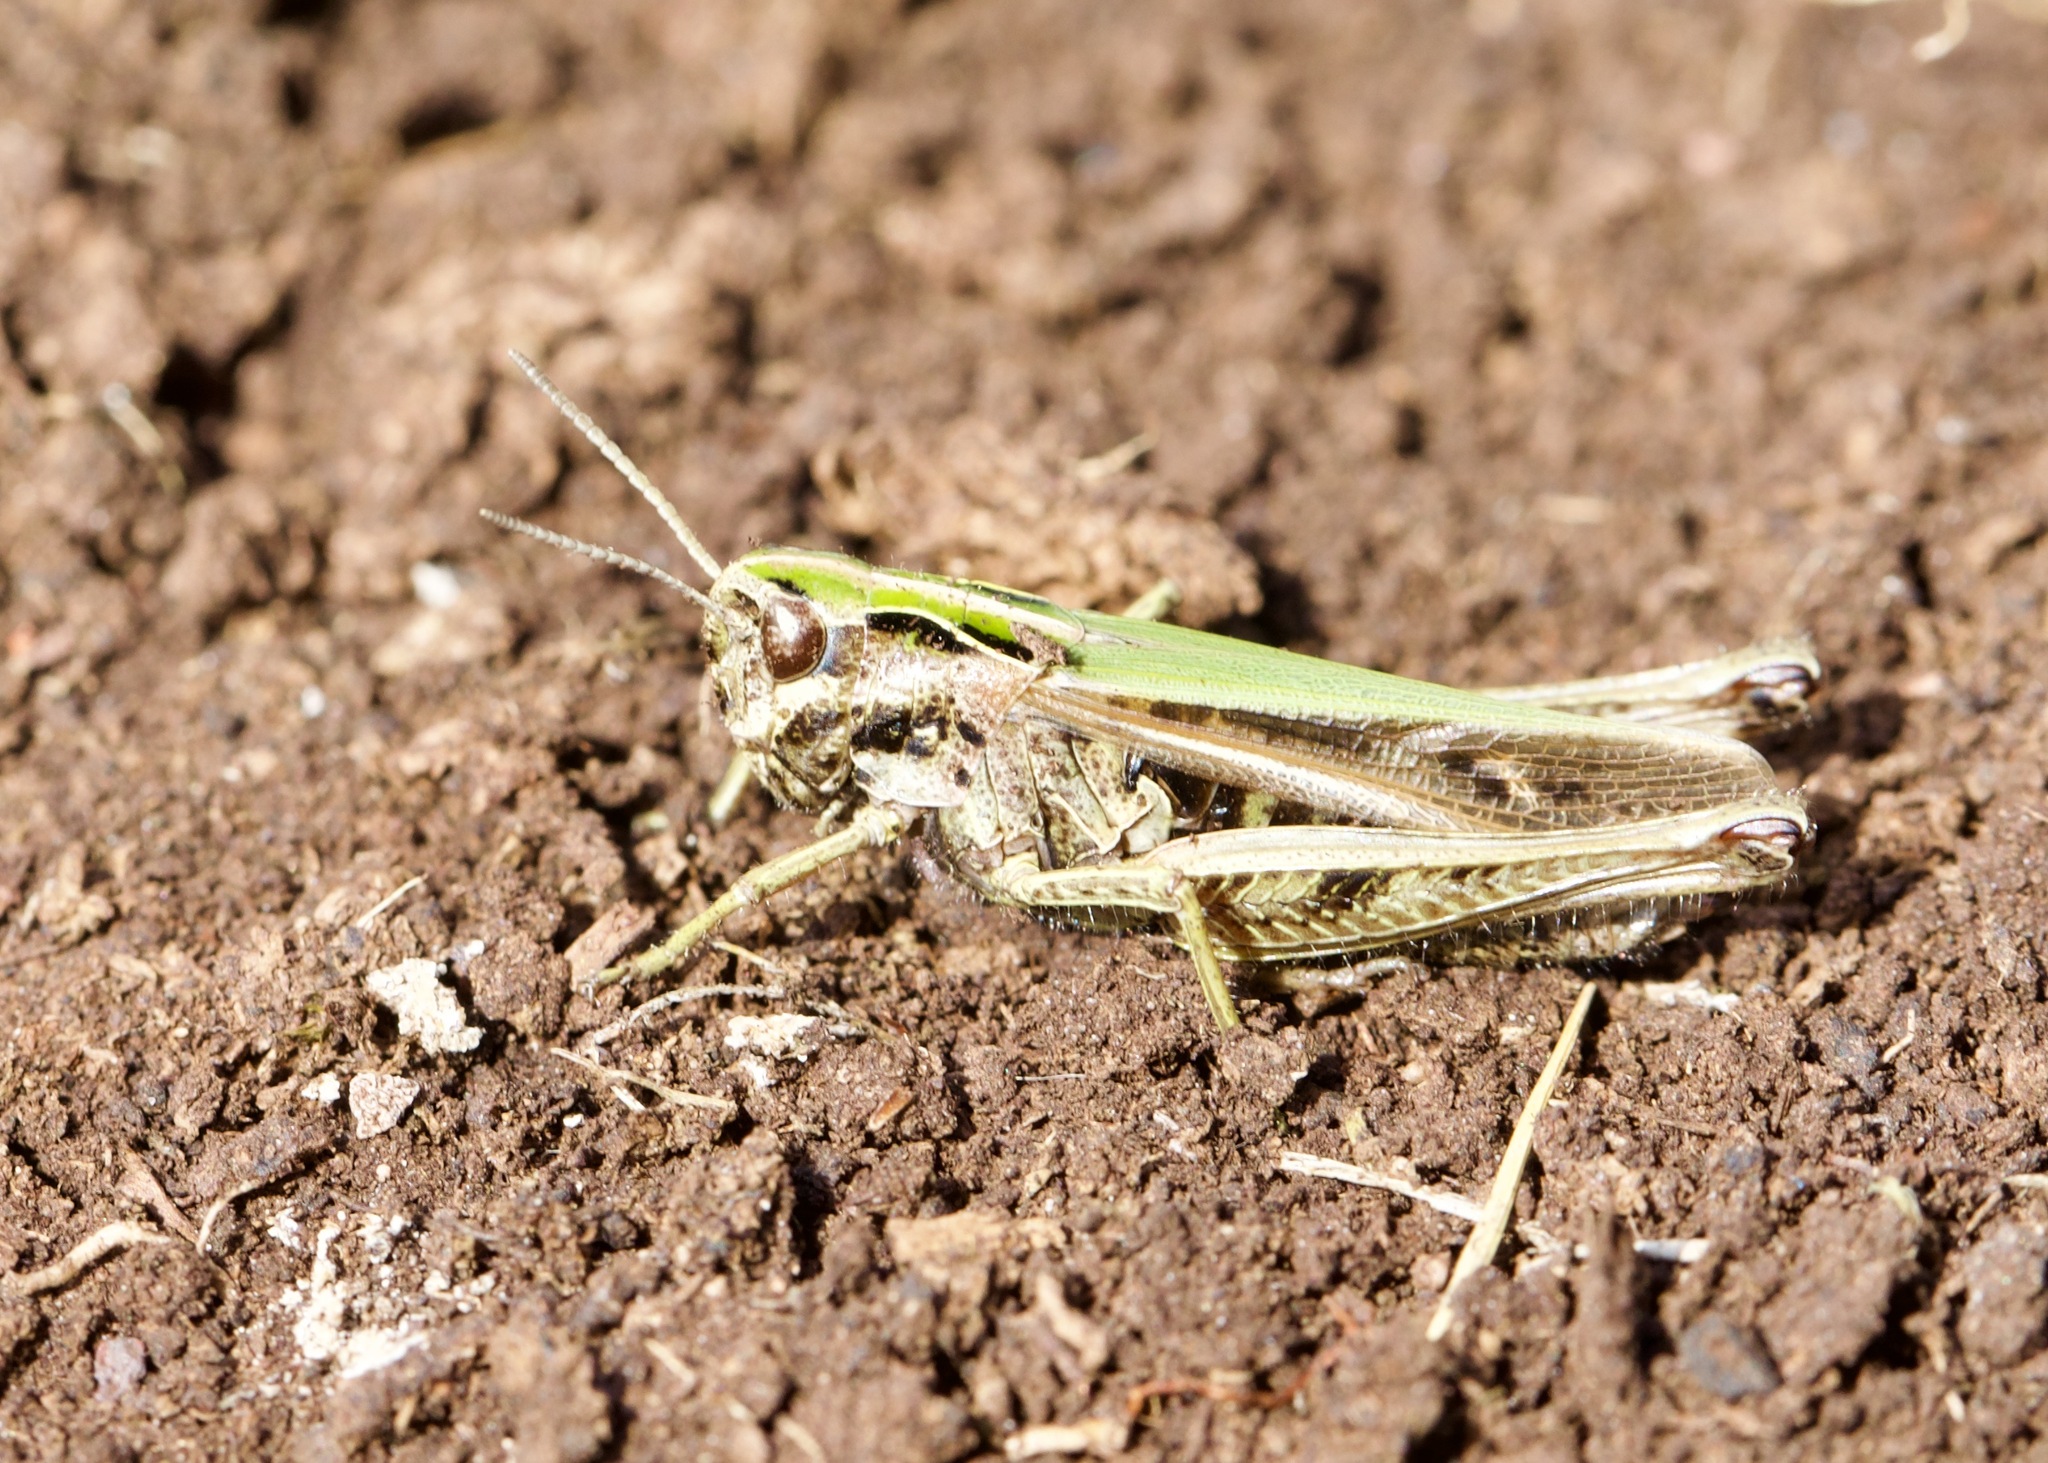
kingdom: Animalia
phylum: Arthropoda
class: Insecta
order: Orthoptera
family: Acrididae
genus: Omocestus
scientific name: Omocestus viridulus
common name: Common green grasshopper
